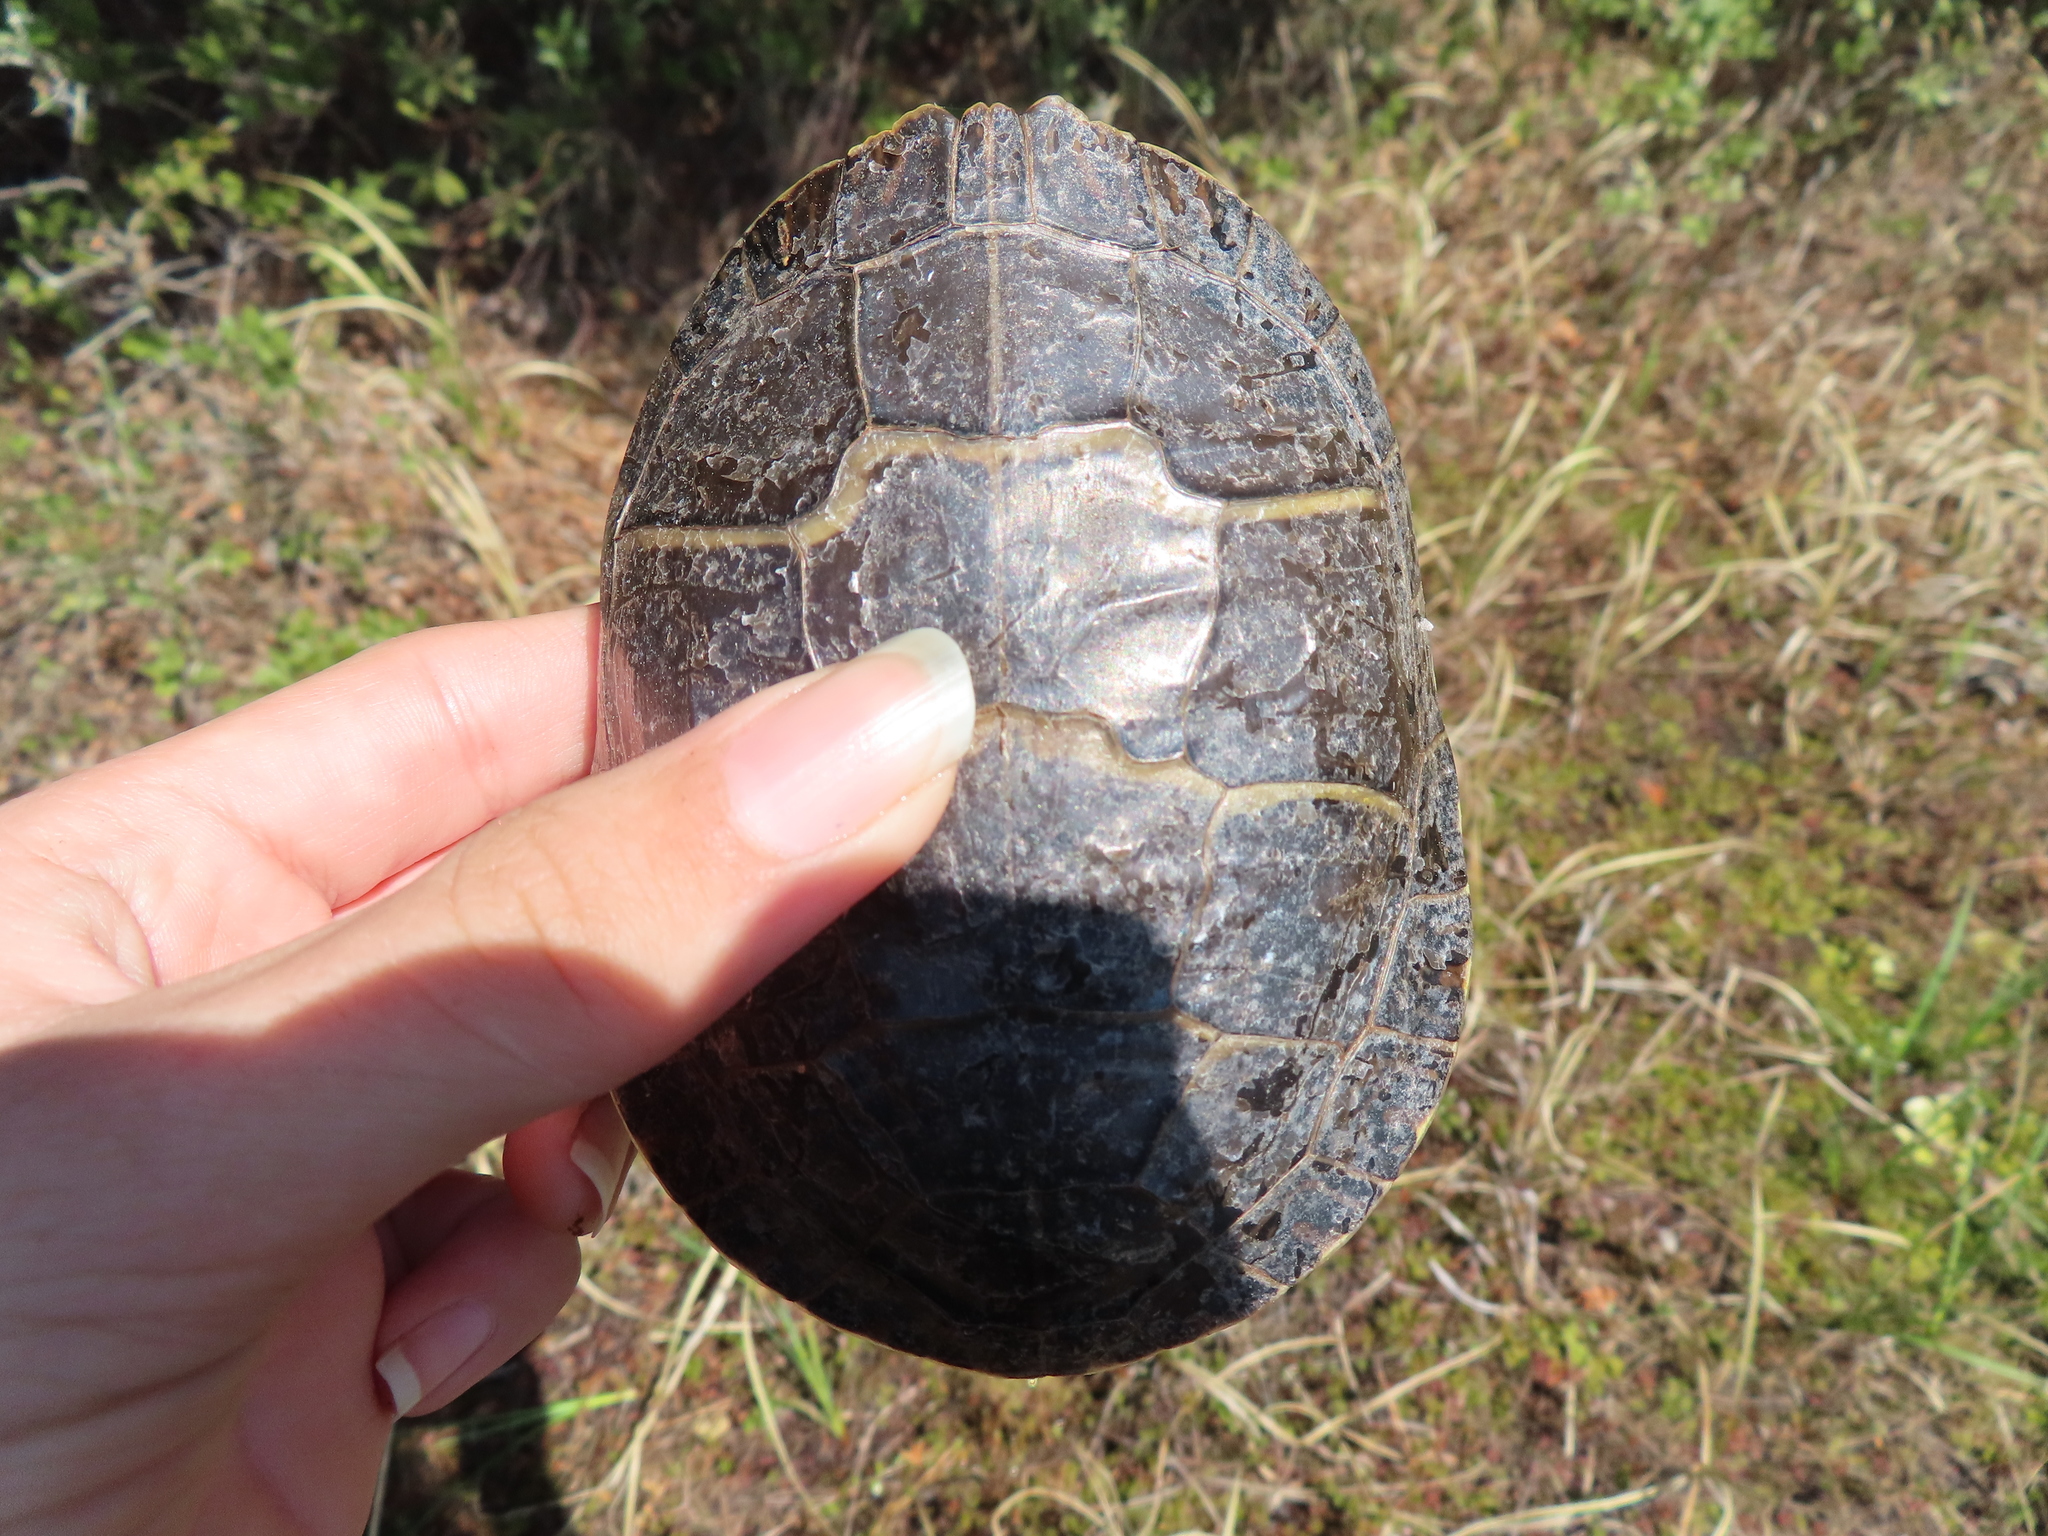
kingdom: Animalia
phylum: Chordata
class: Testudines
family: Emydidae
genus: Chrysemys
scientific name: Chrysemys picta
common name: Painted turtle
